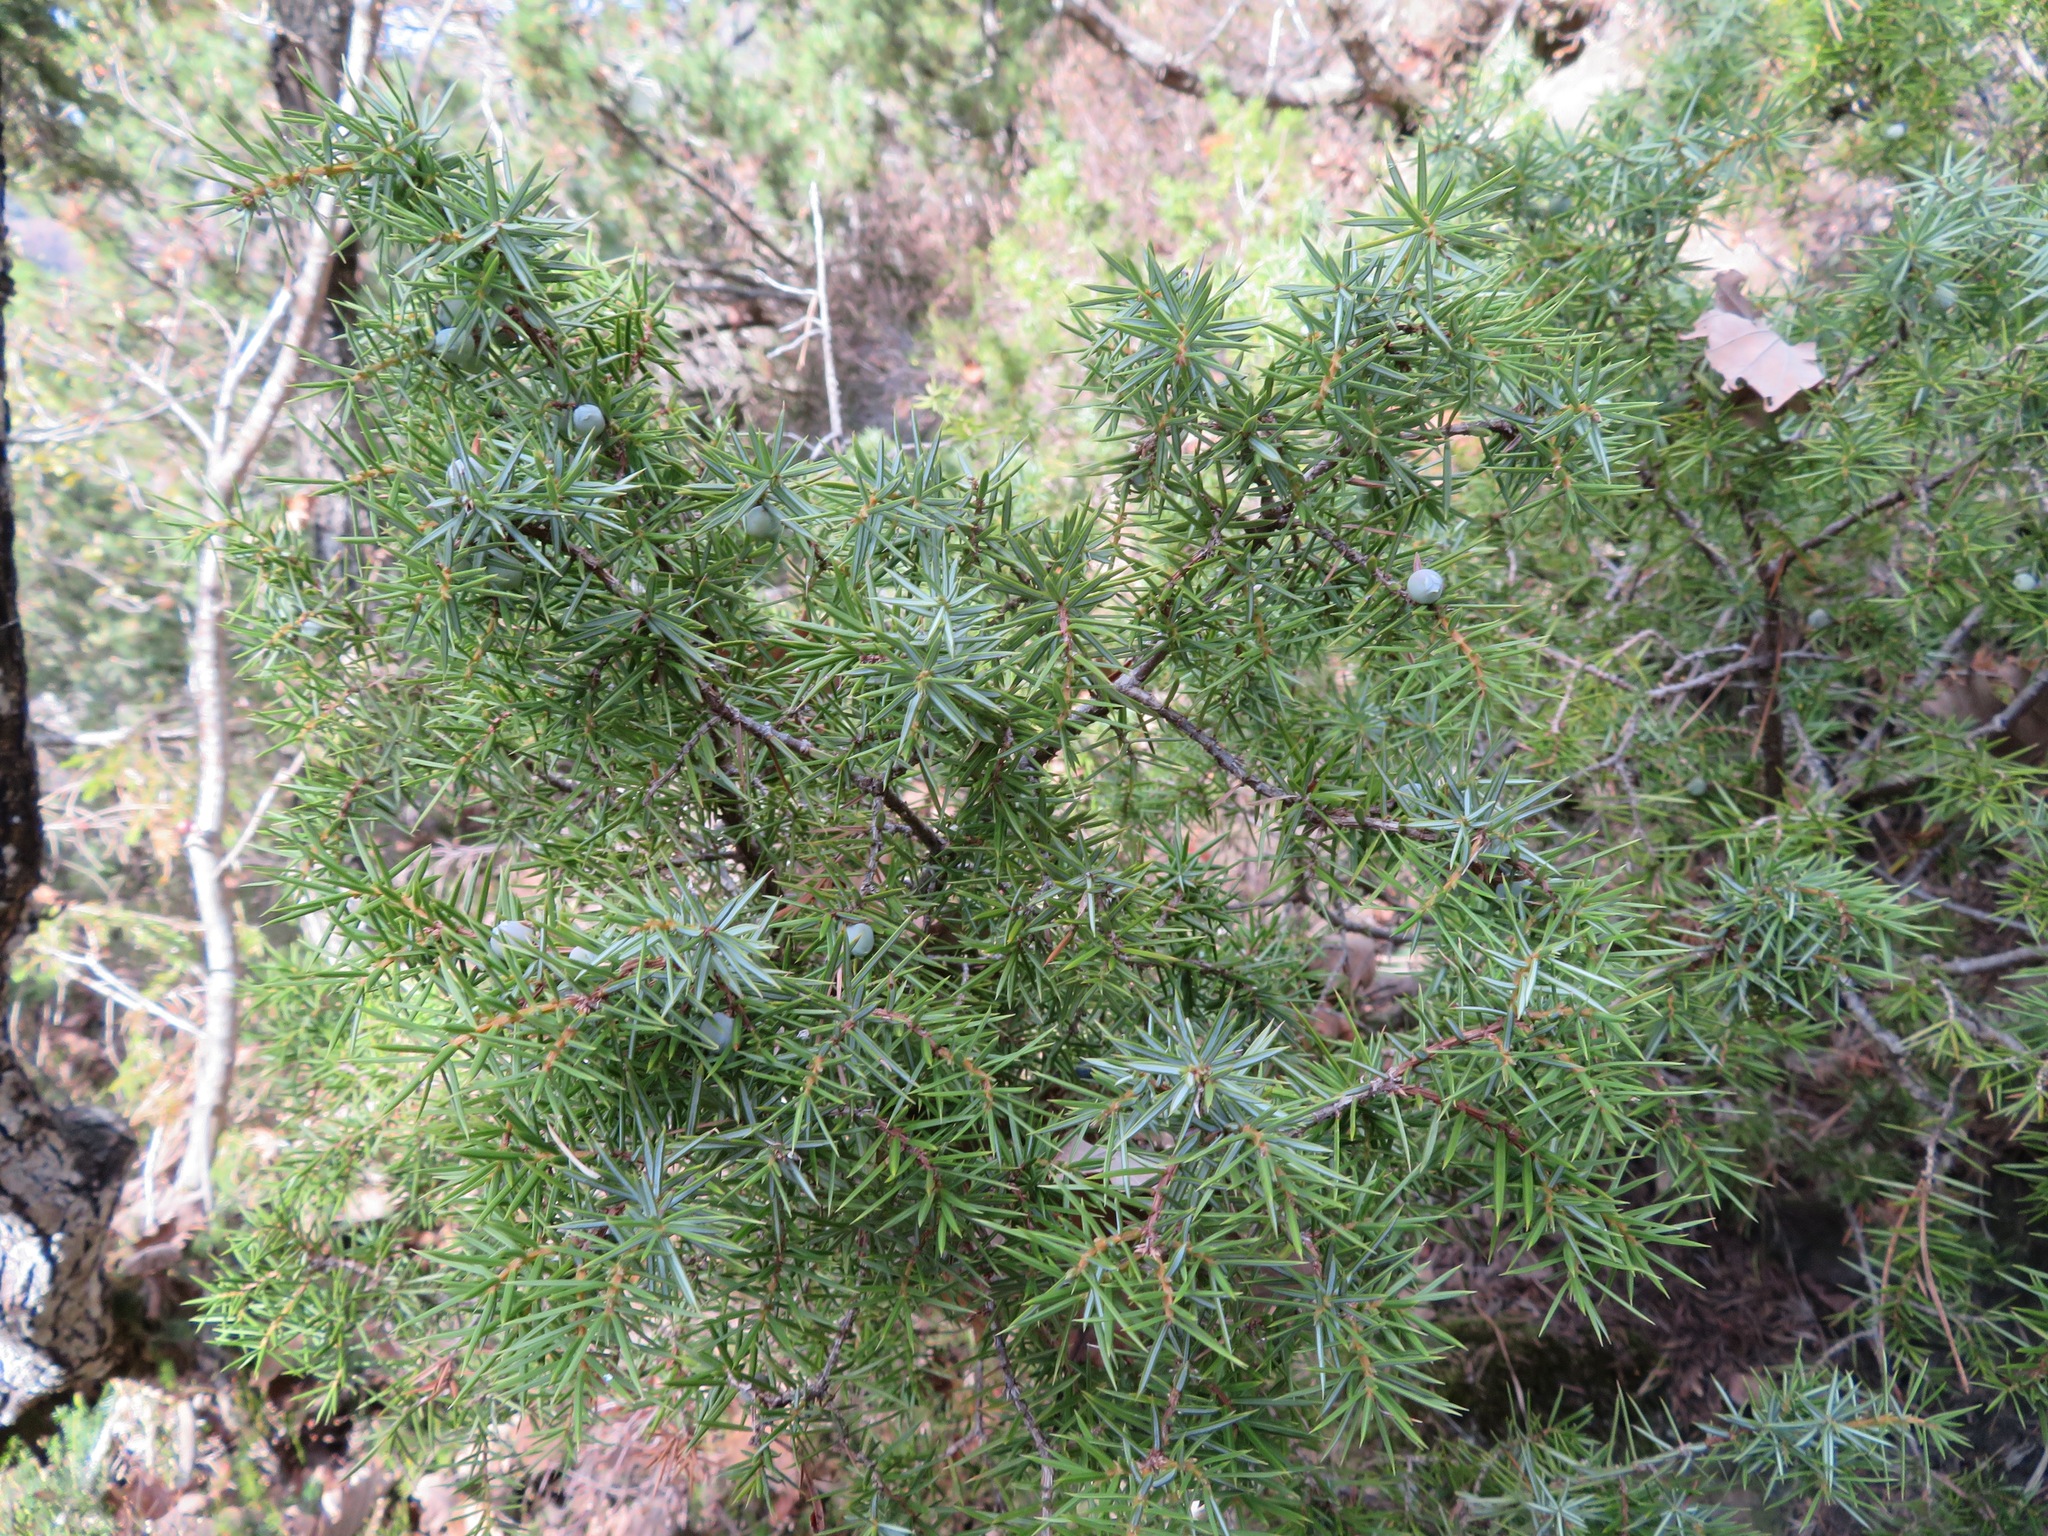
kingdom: Plantae
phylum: Tracheophyta
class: Pinopsida
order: Pinales
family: Cupressaceae
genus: Juniperus
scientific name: Juniperus communis
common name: Common juniper
